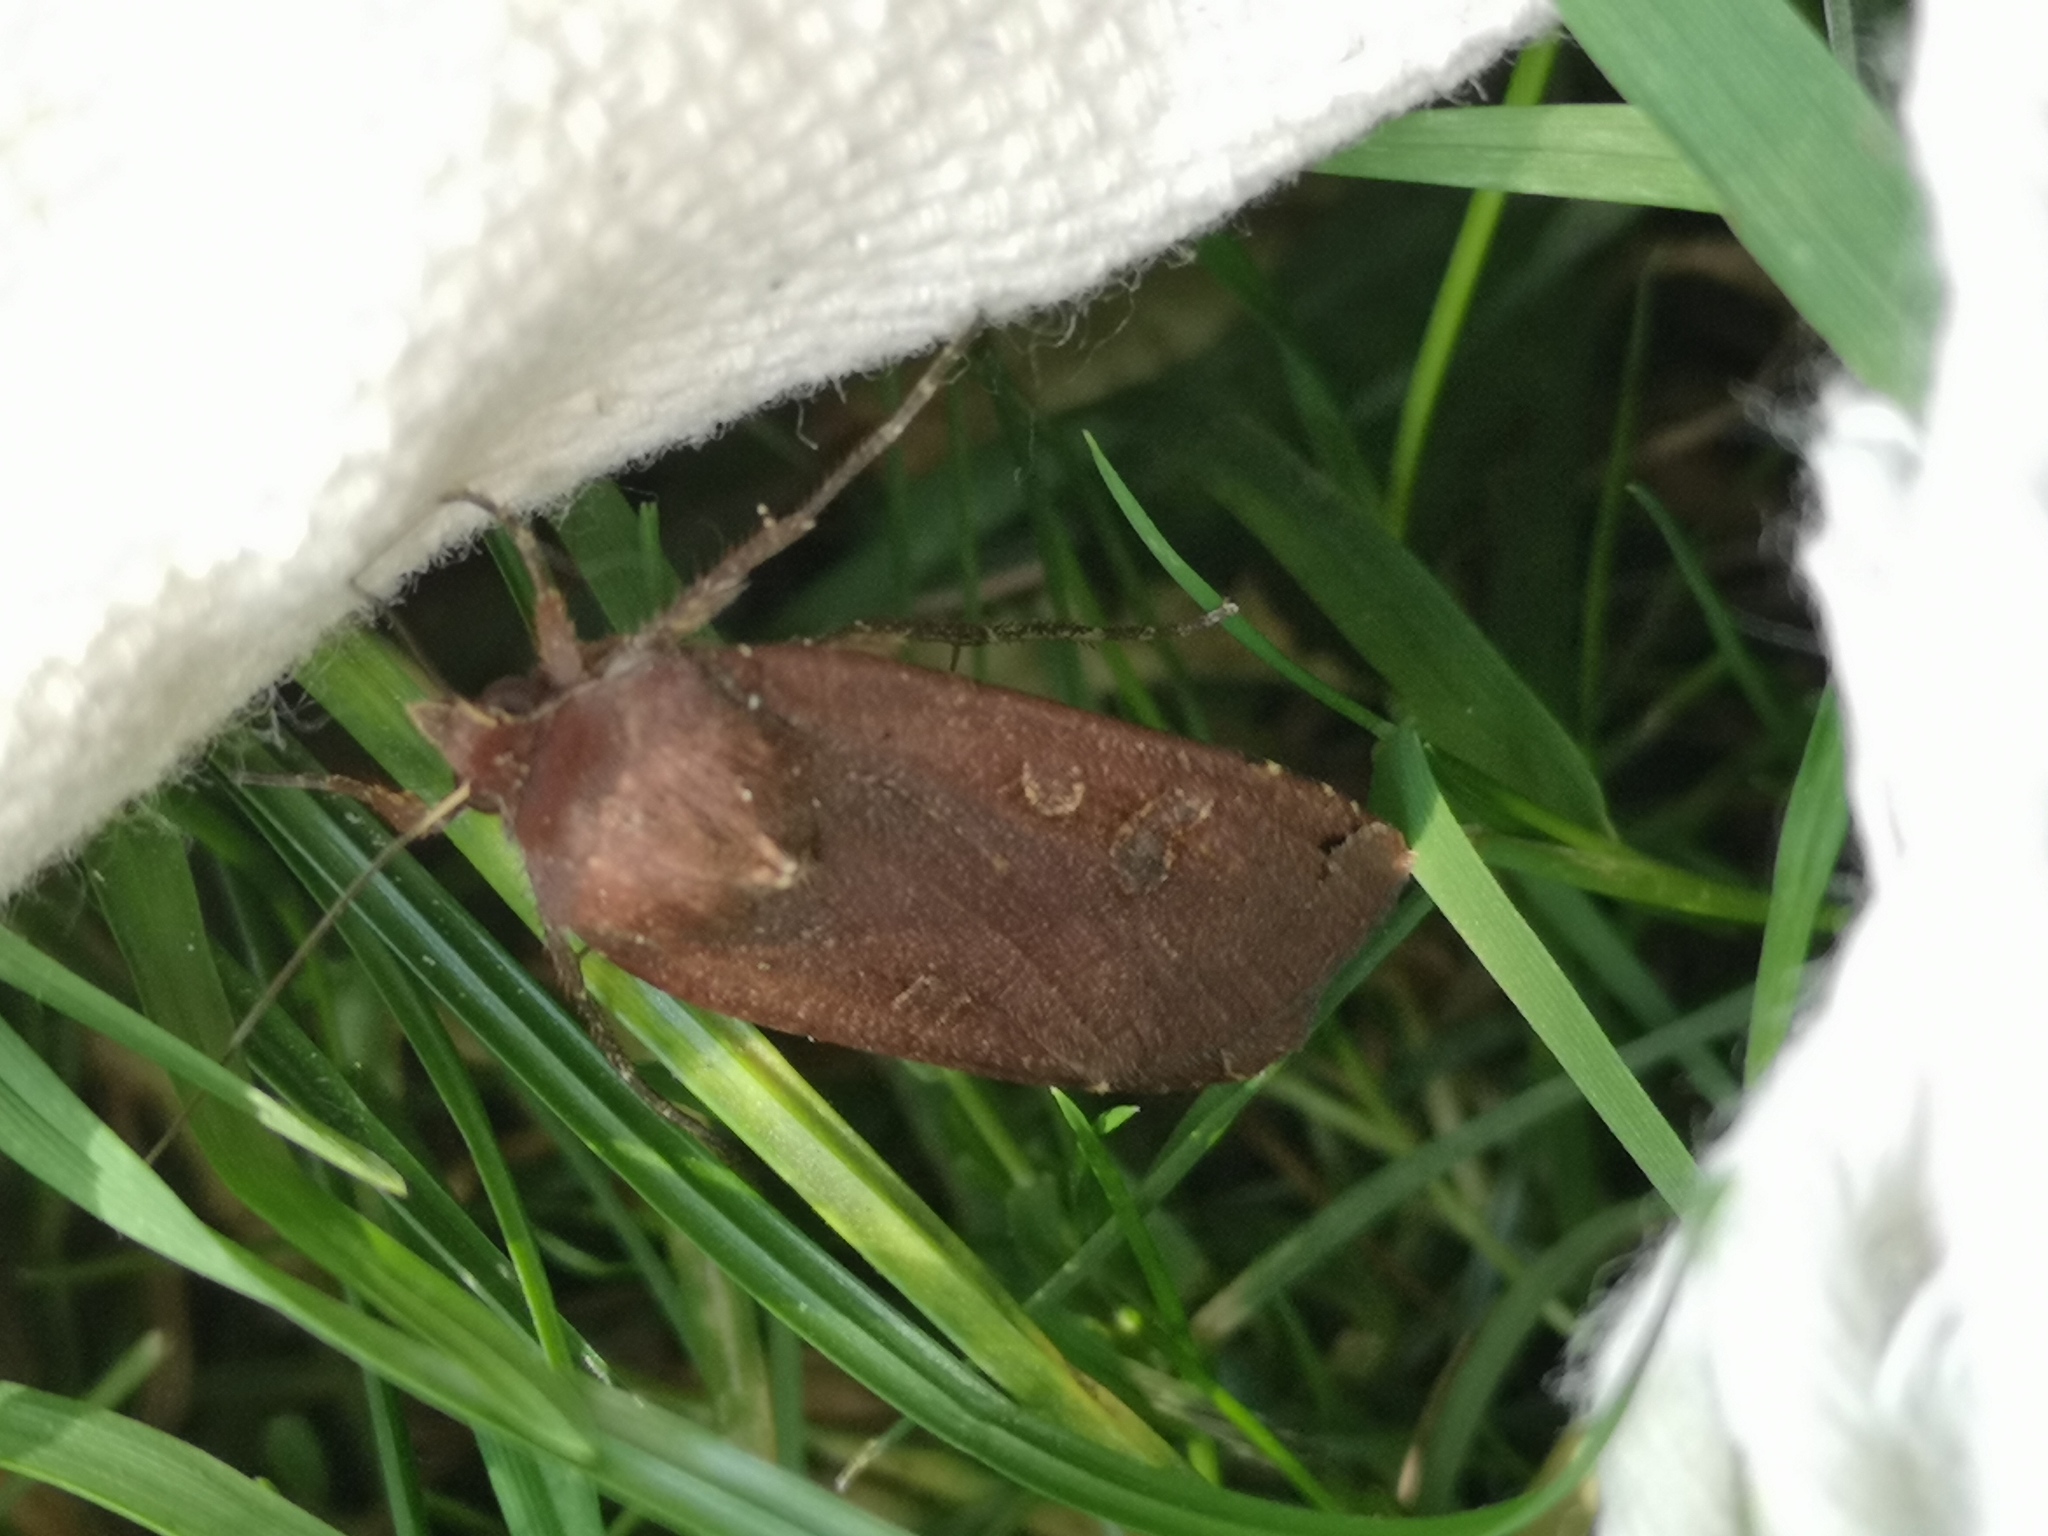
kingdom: Animalia
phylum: Arthropoda
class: Insecta
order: Lepidoptera
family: Noctuidae
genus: Noctua
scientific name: Noctua pronuba
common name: Large yellow underwing
